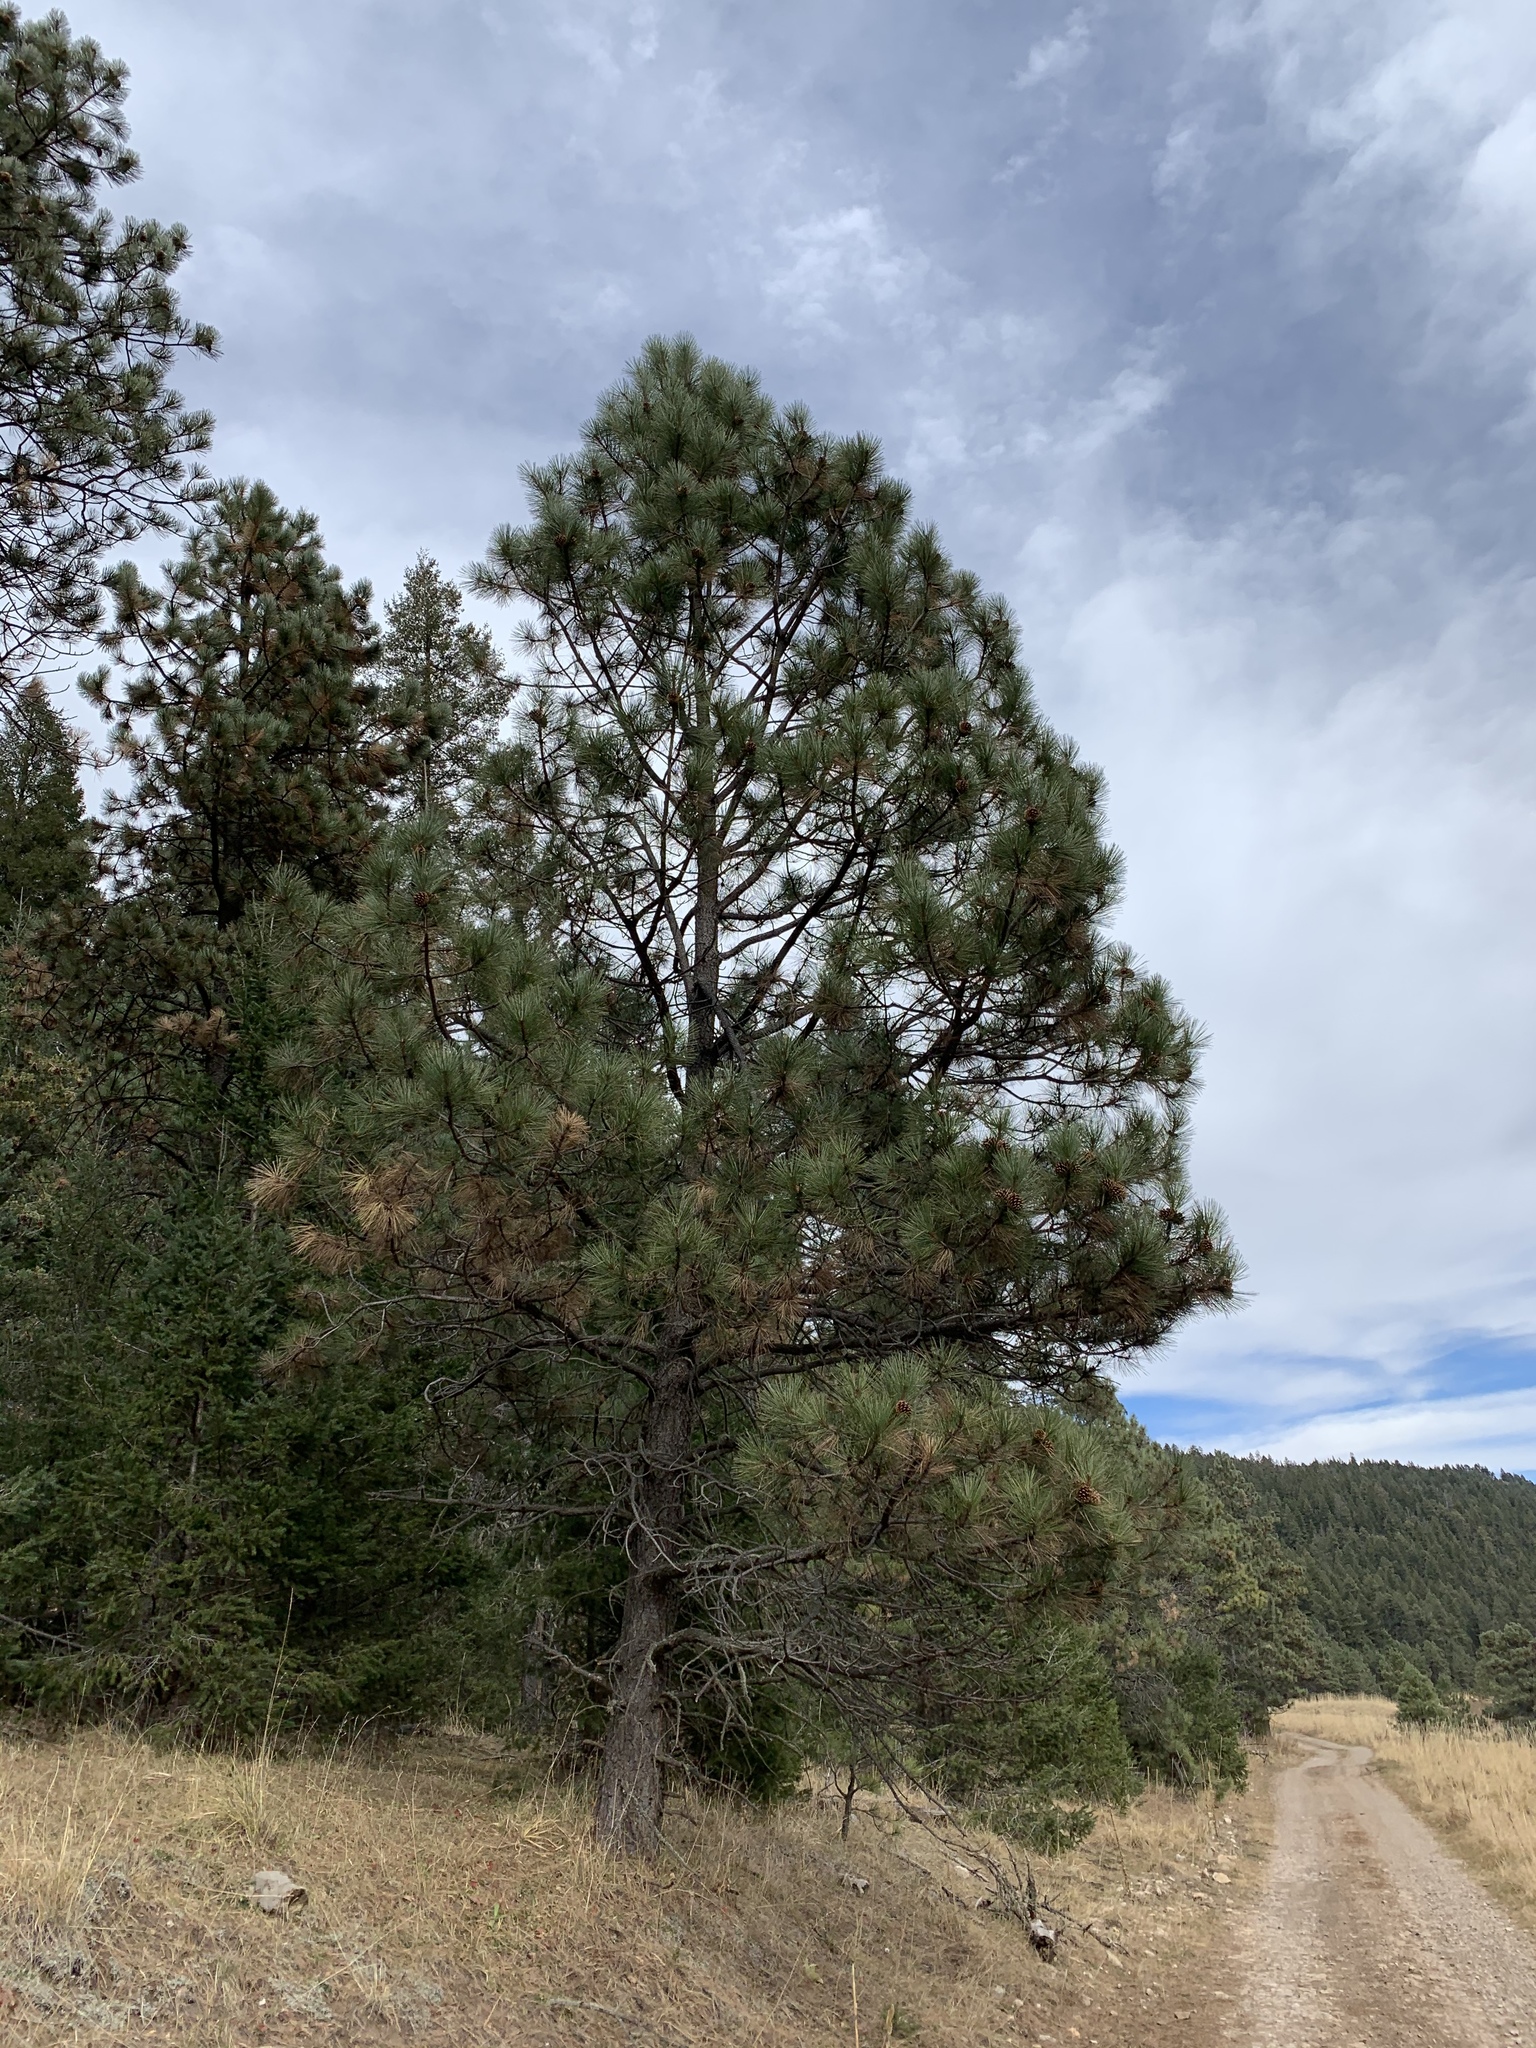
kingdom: Plantae
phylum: Tracheophyta
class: Pinopsida
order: Pinales
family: Pinaceae
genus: Pinus
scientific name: Pinus ponderosa
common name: Western yellow-pine
